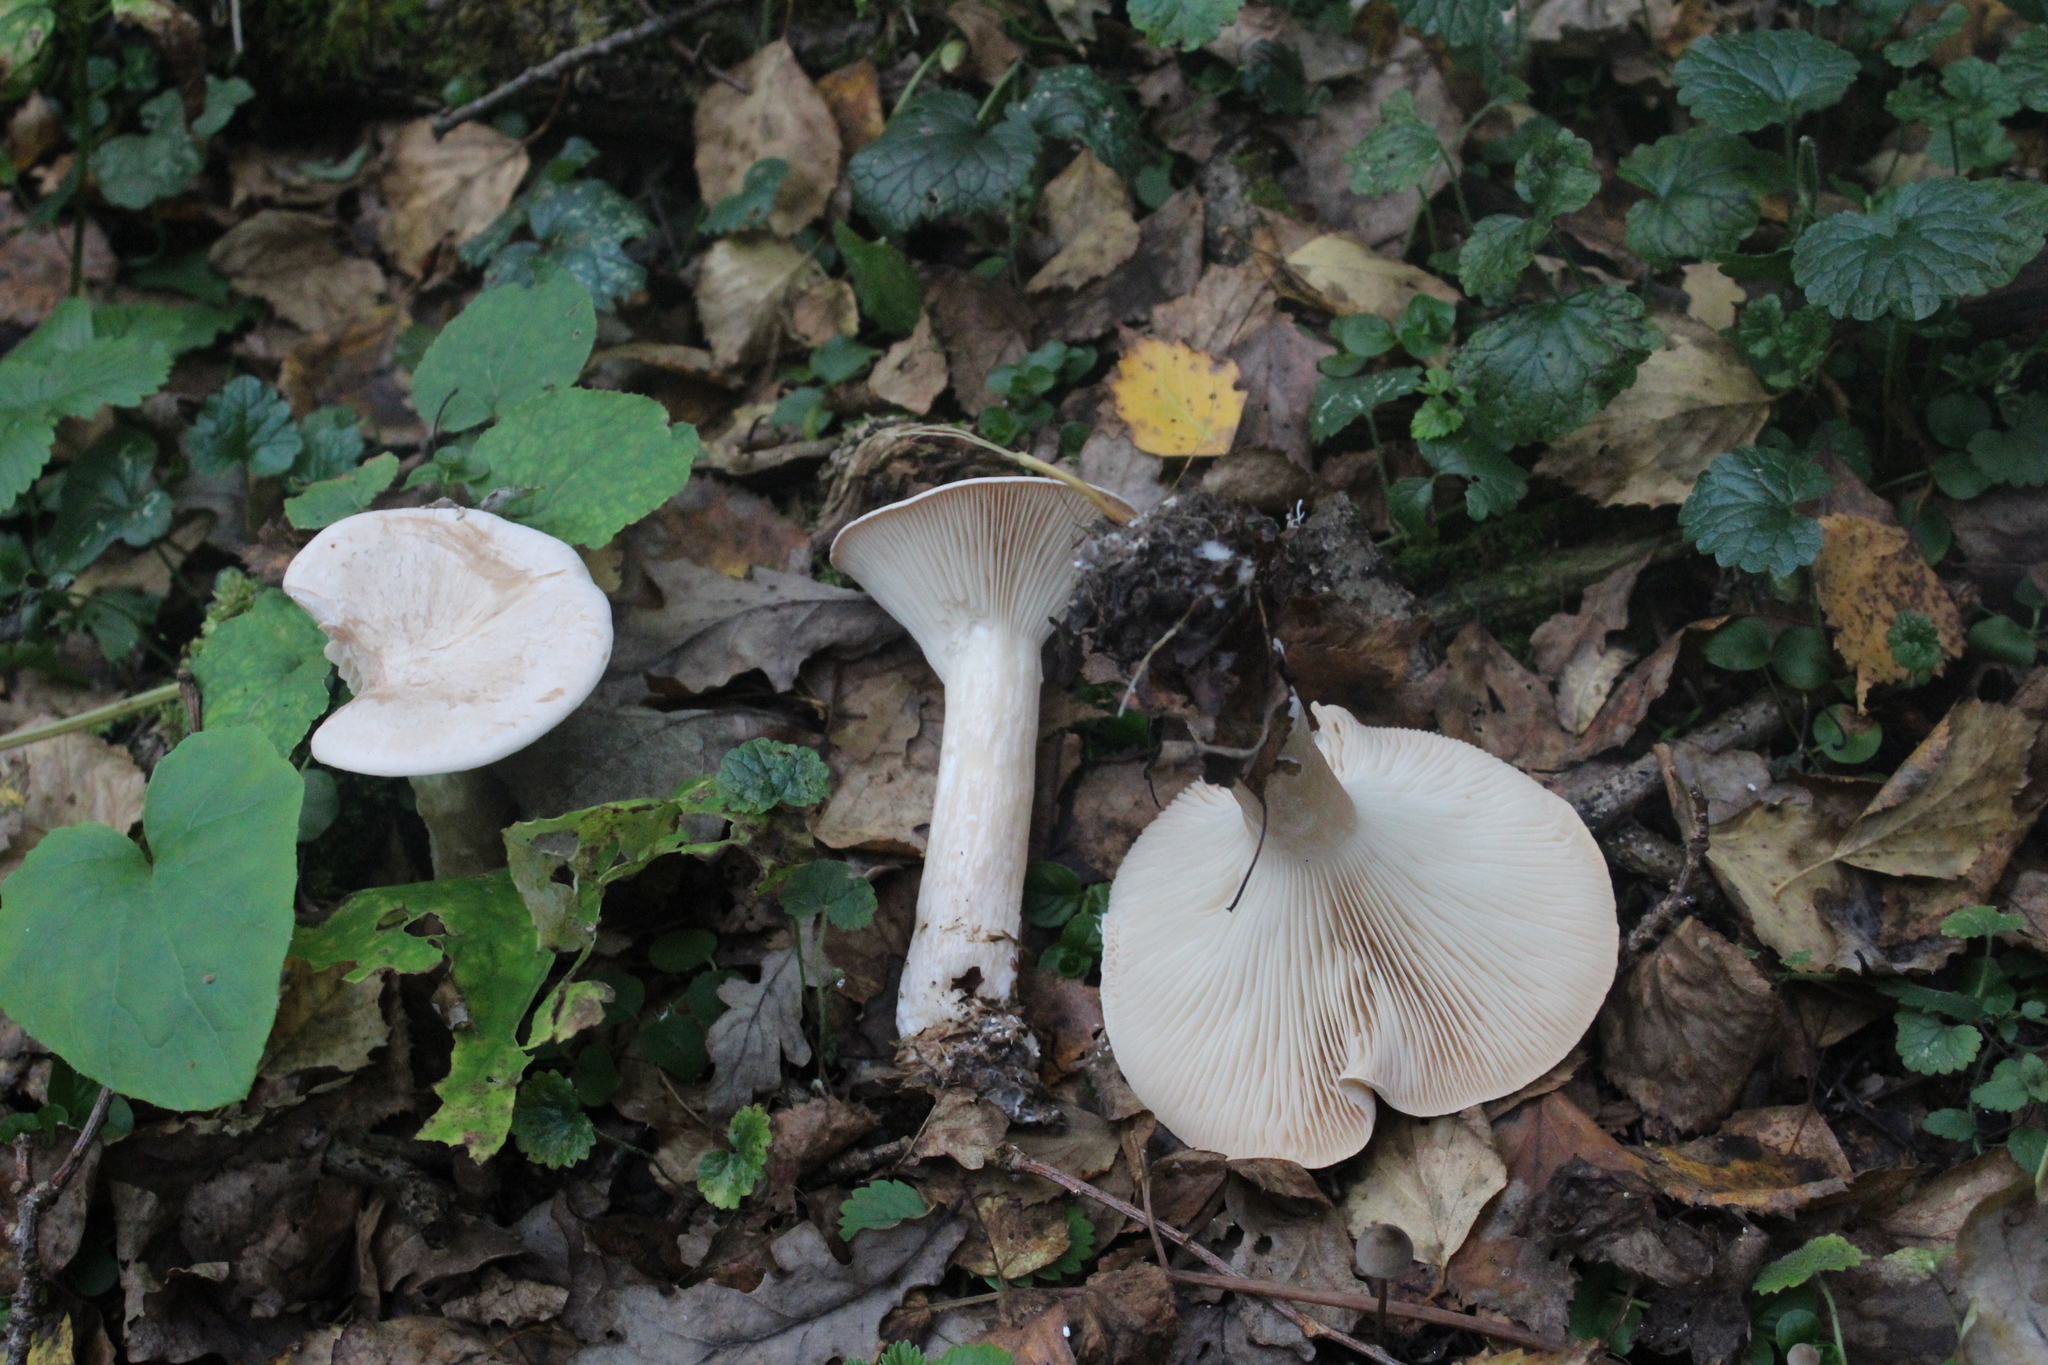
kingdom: Fungi
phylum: Basidiomycota
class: Agaricomycetes
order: Agaricales
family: Tricholomataceae
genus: Infundibulicybe
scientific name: Infundibulicybe geotropa
